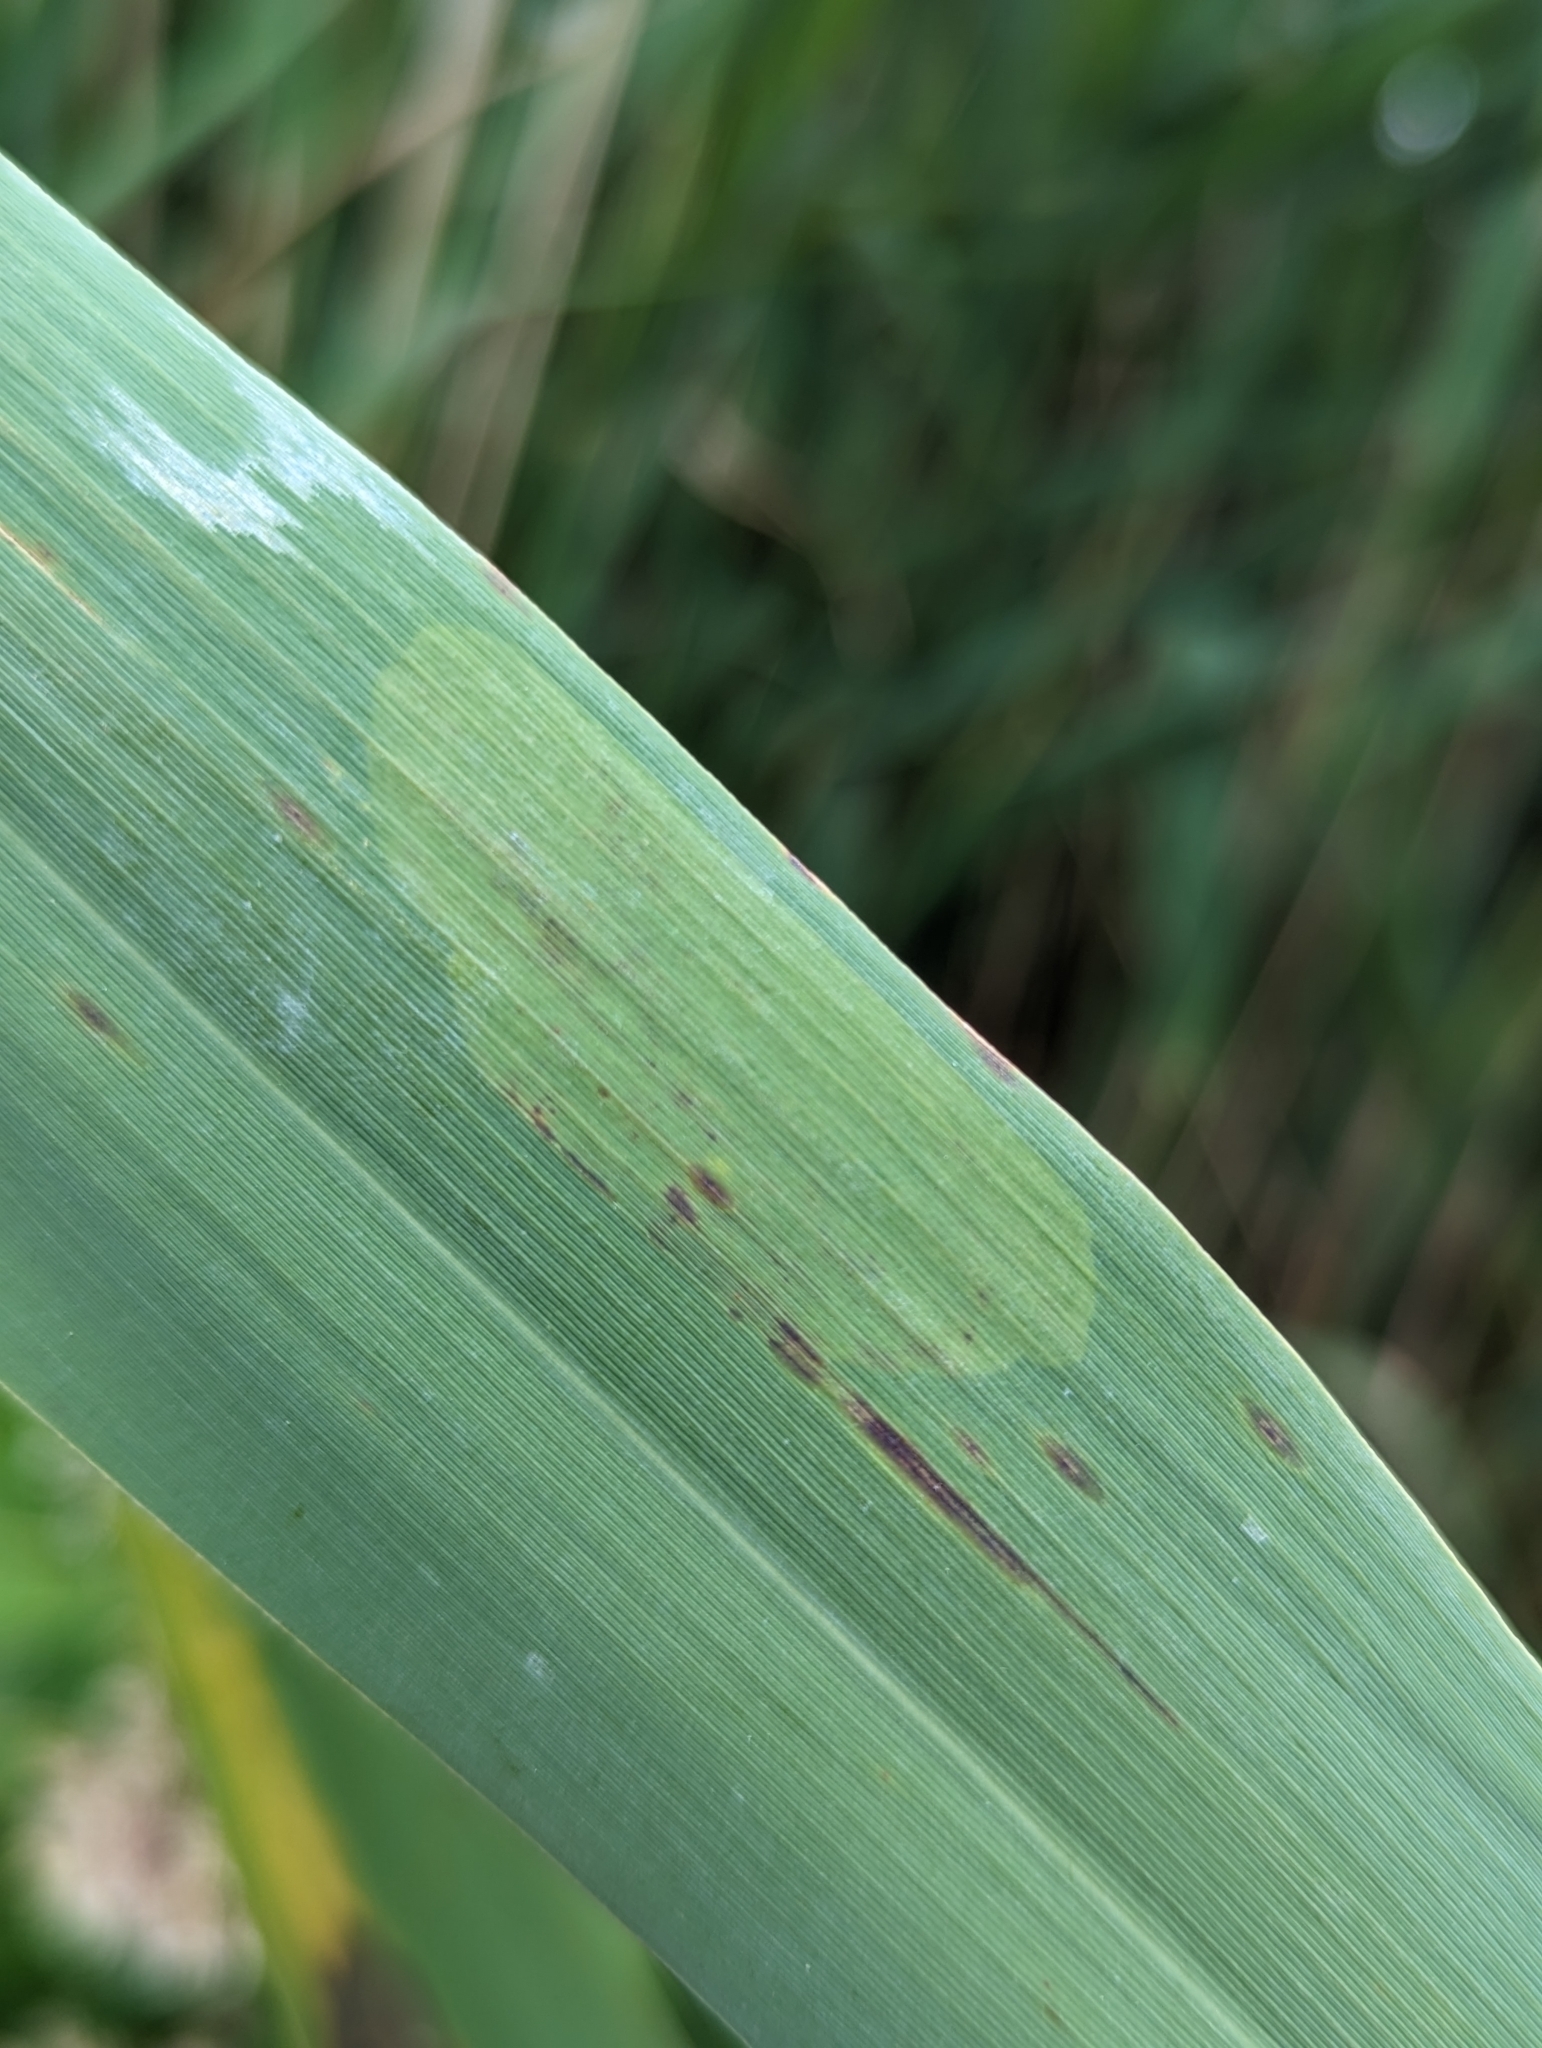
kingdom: Animalia
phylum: Arthropoda
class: Insecta
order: Lepidoptera
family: Elachistidae
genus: Elachista
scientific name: Elachista helodella
